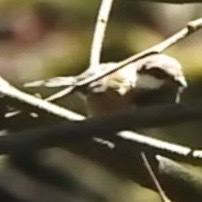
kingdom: Animalia
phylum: Chordata
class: Aves
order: Passeriformes
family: Paridae
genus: Poecile
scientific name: Poecile rufescens
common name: Chestnut-backed chickadee
